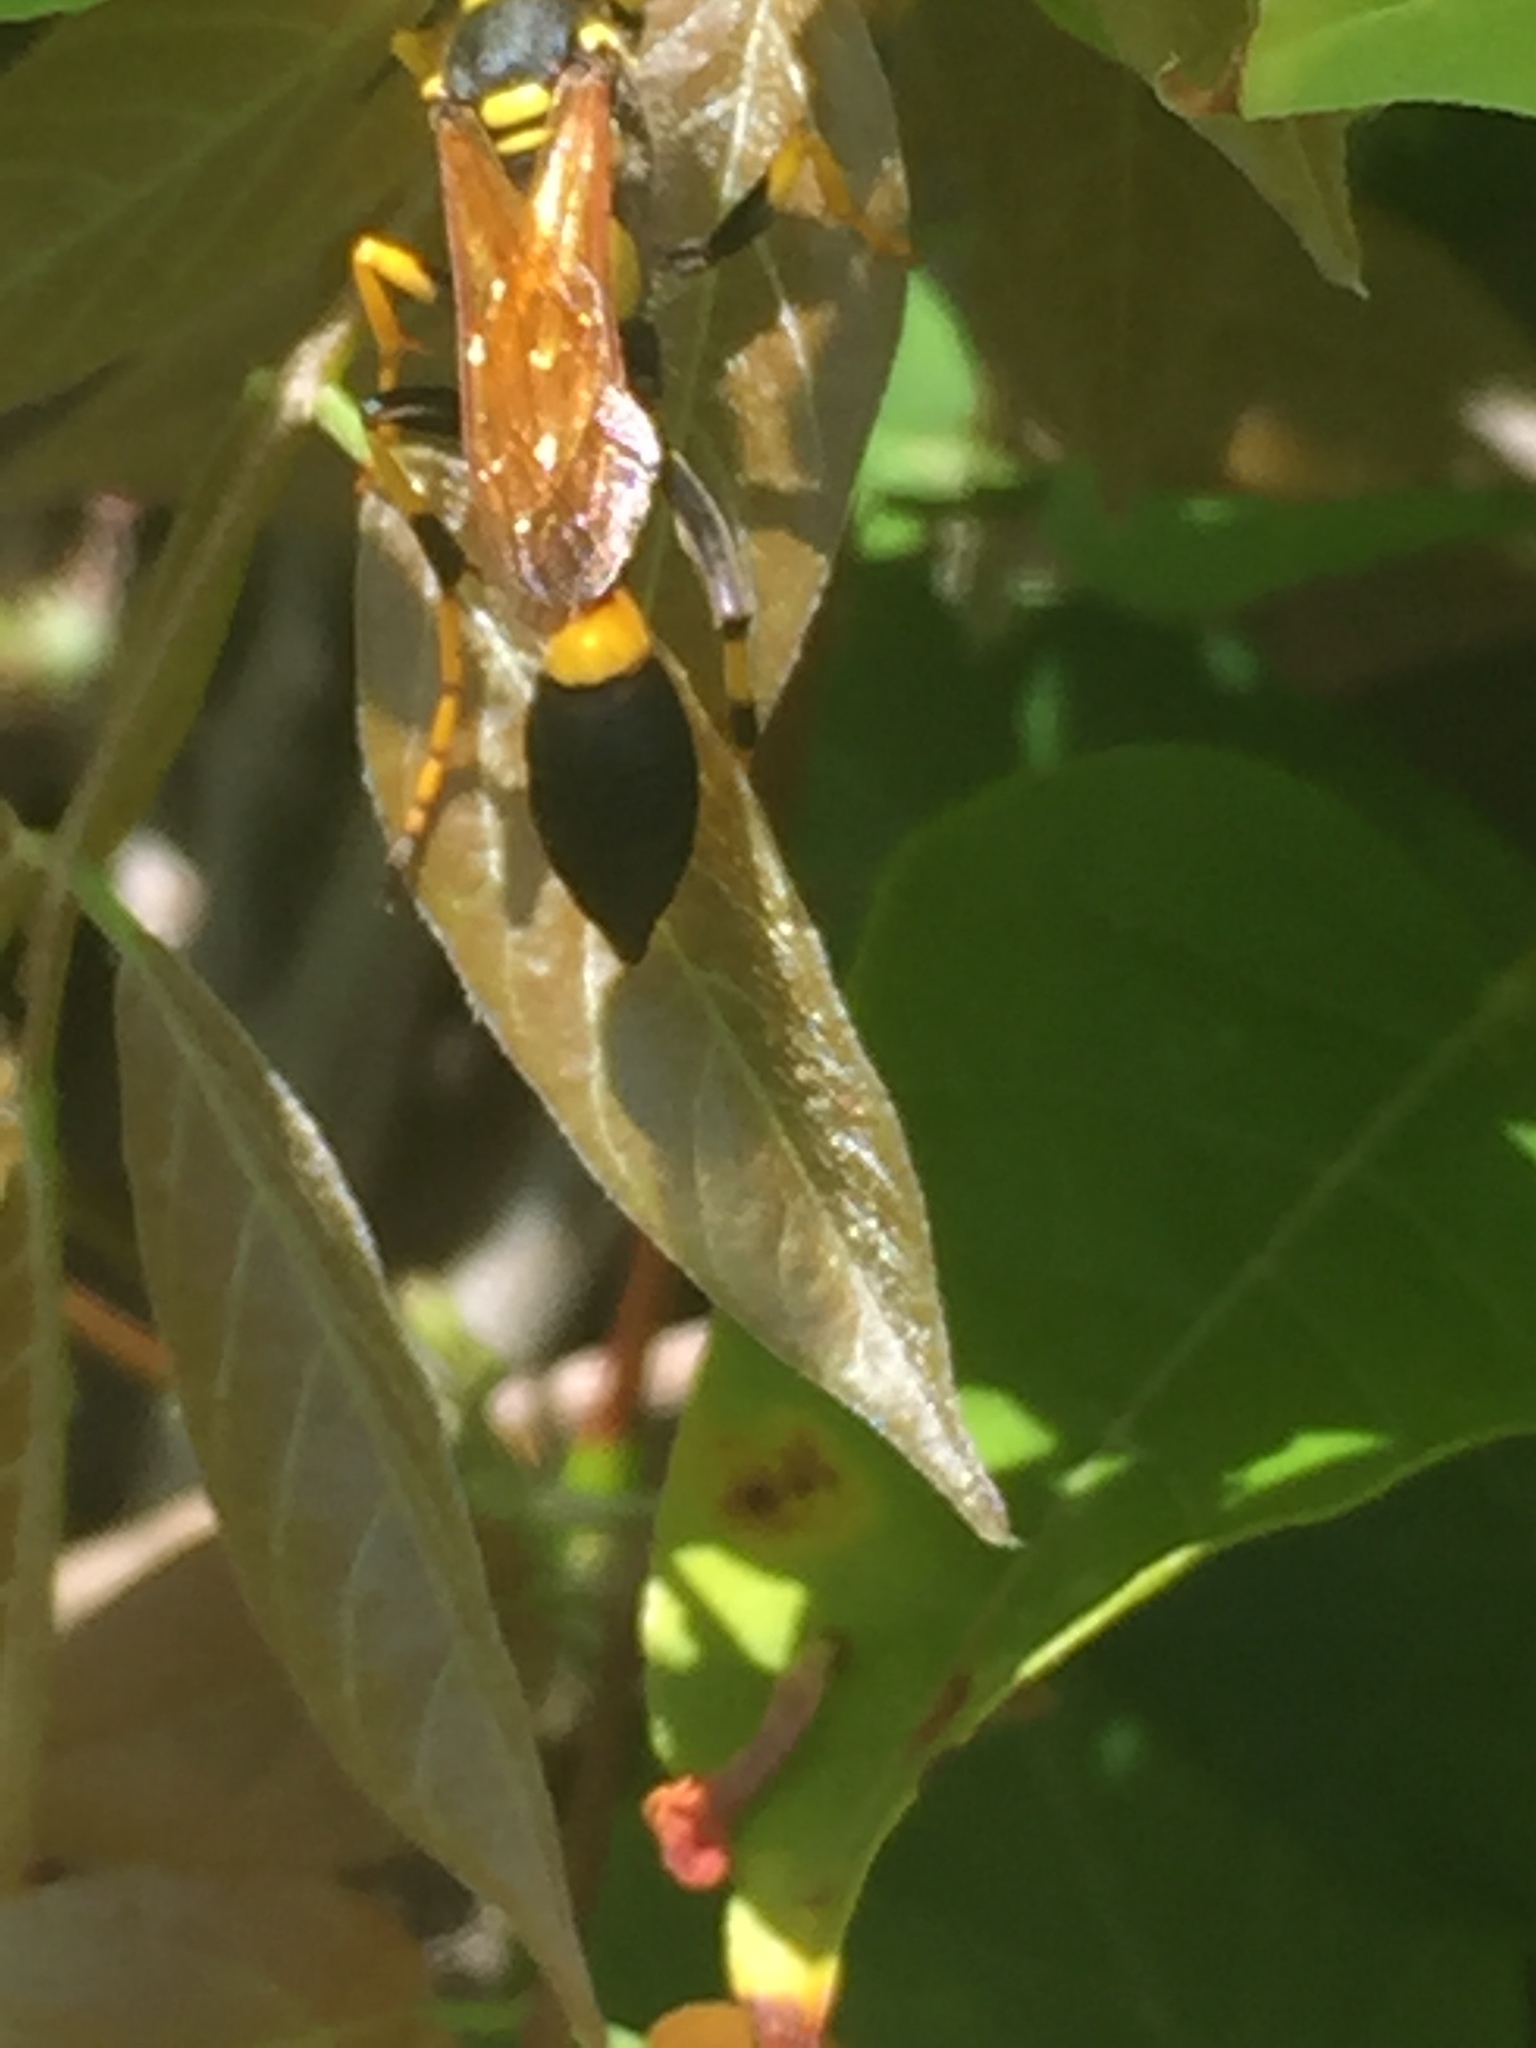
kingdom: Animalia
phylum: Arthropoda
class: Insecta
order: Hymenoptera
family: Sphecidae
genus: Sceliphron
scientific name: Sceliphron caementarium
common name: Mud dauber
